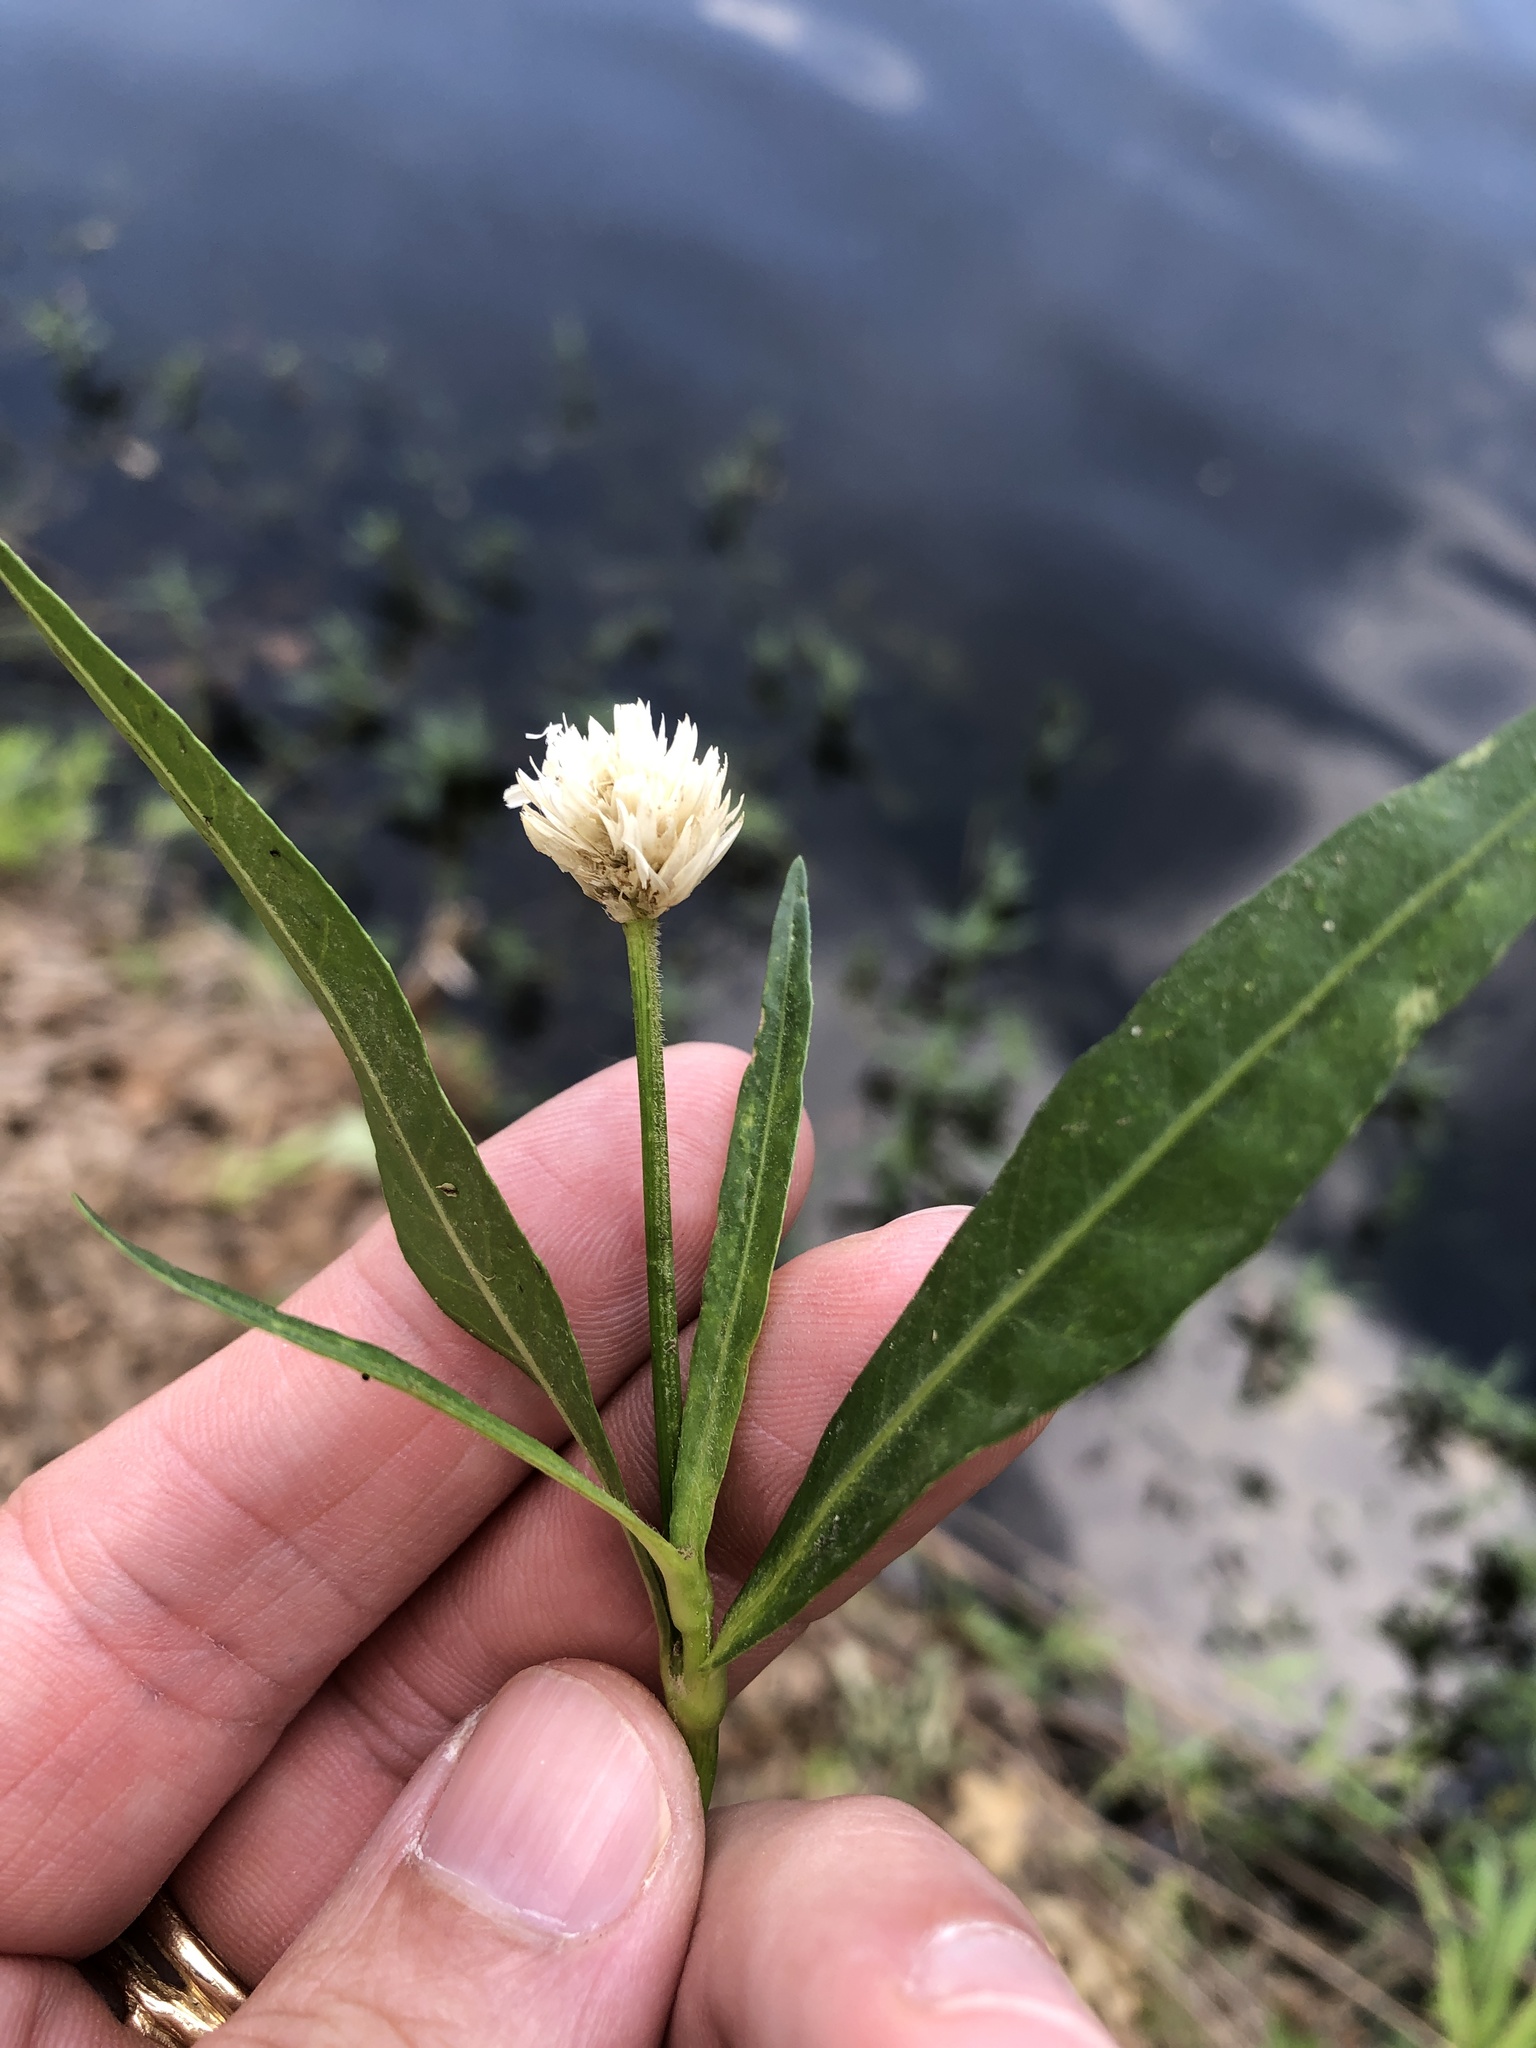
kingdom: Plantae
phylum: Tracheophyta
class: Magnoliopsida
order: Caryophyllales
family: Amaranthaceae
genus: Alternanthera
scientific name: Alternanthera philoxeroides
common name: Alligatorweed
